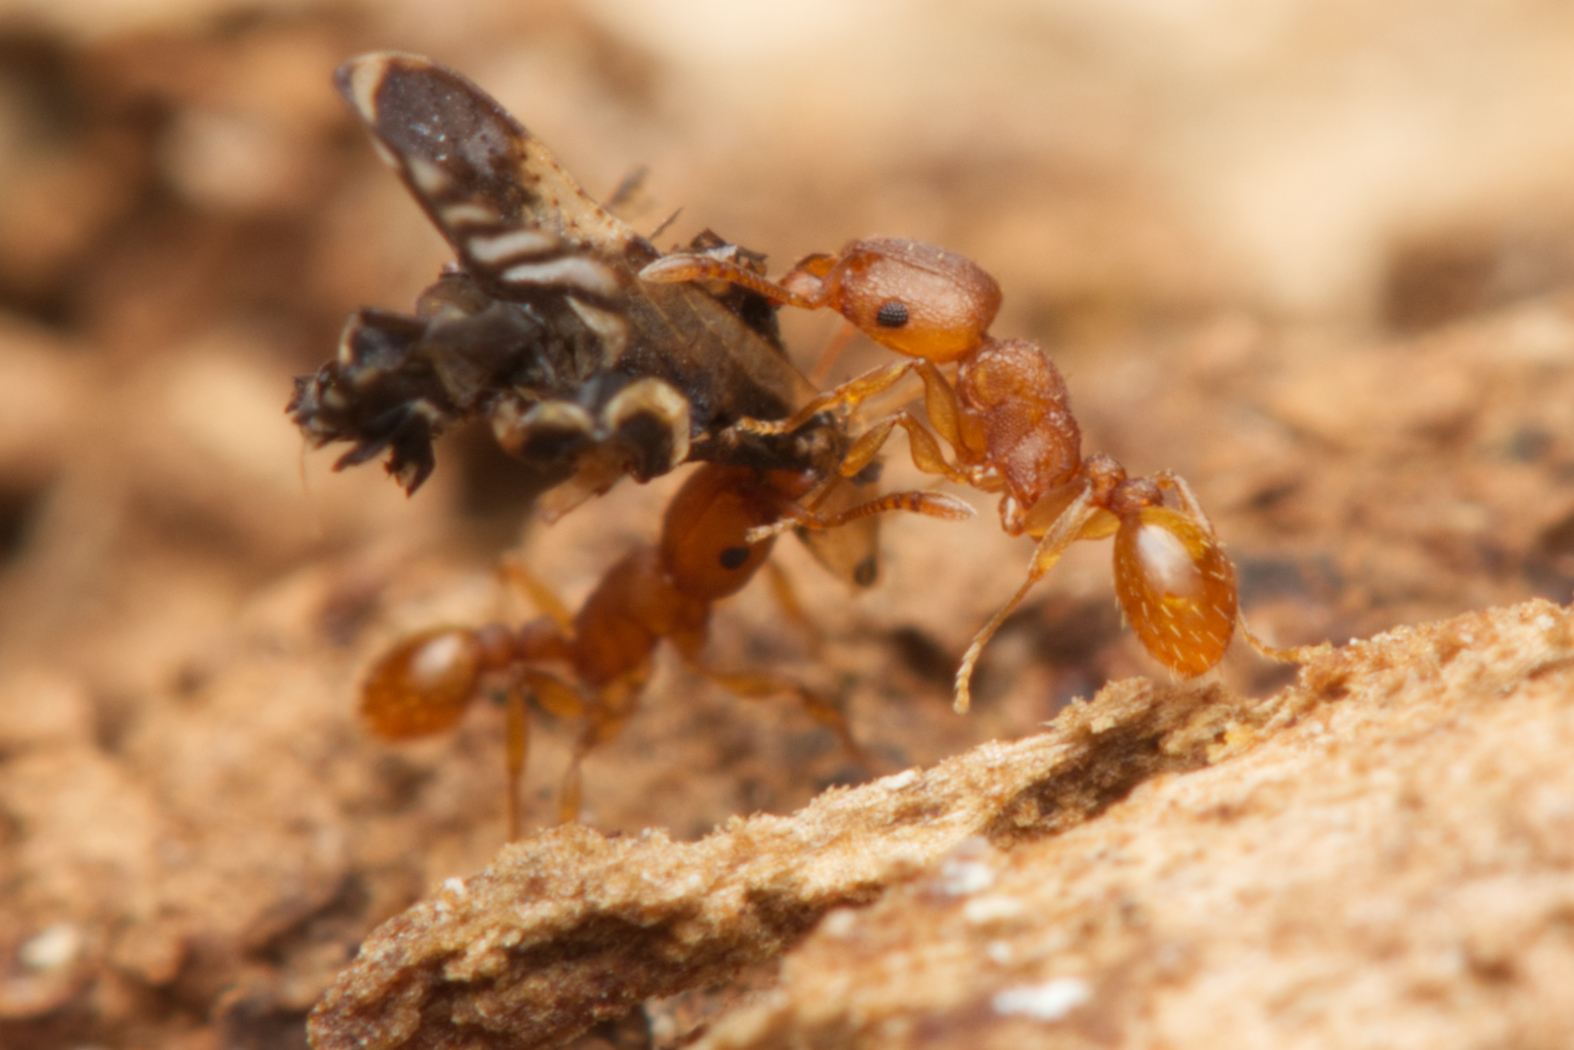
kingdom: Animalia
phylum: Arthropoda
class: Insecta
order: Hymenoptera
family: Formicidae
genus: Tetramorium
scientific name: Tetramorium simillimum
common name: Ant
